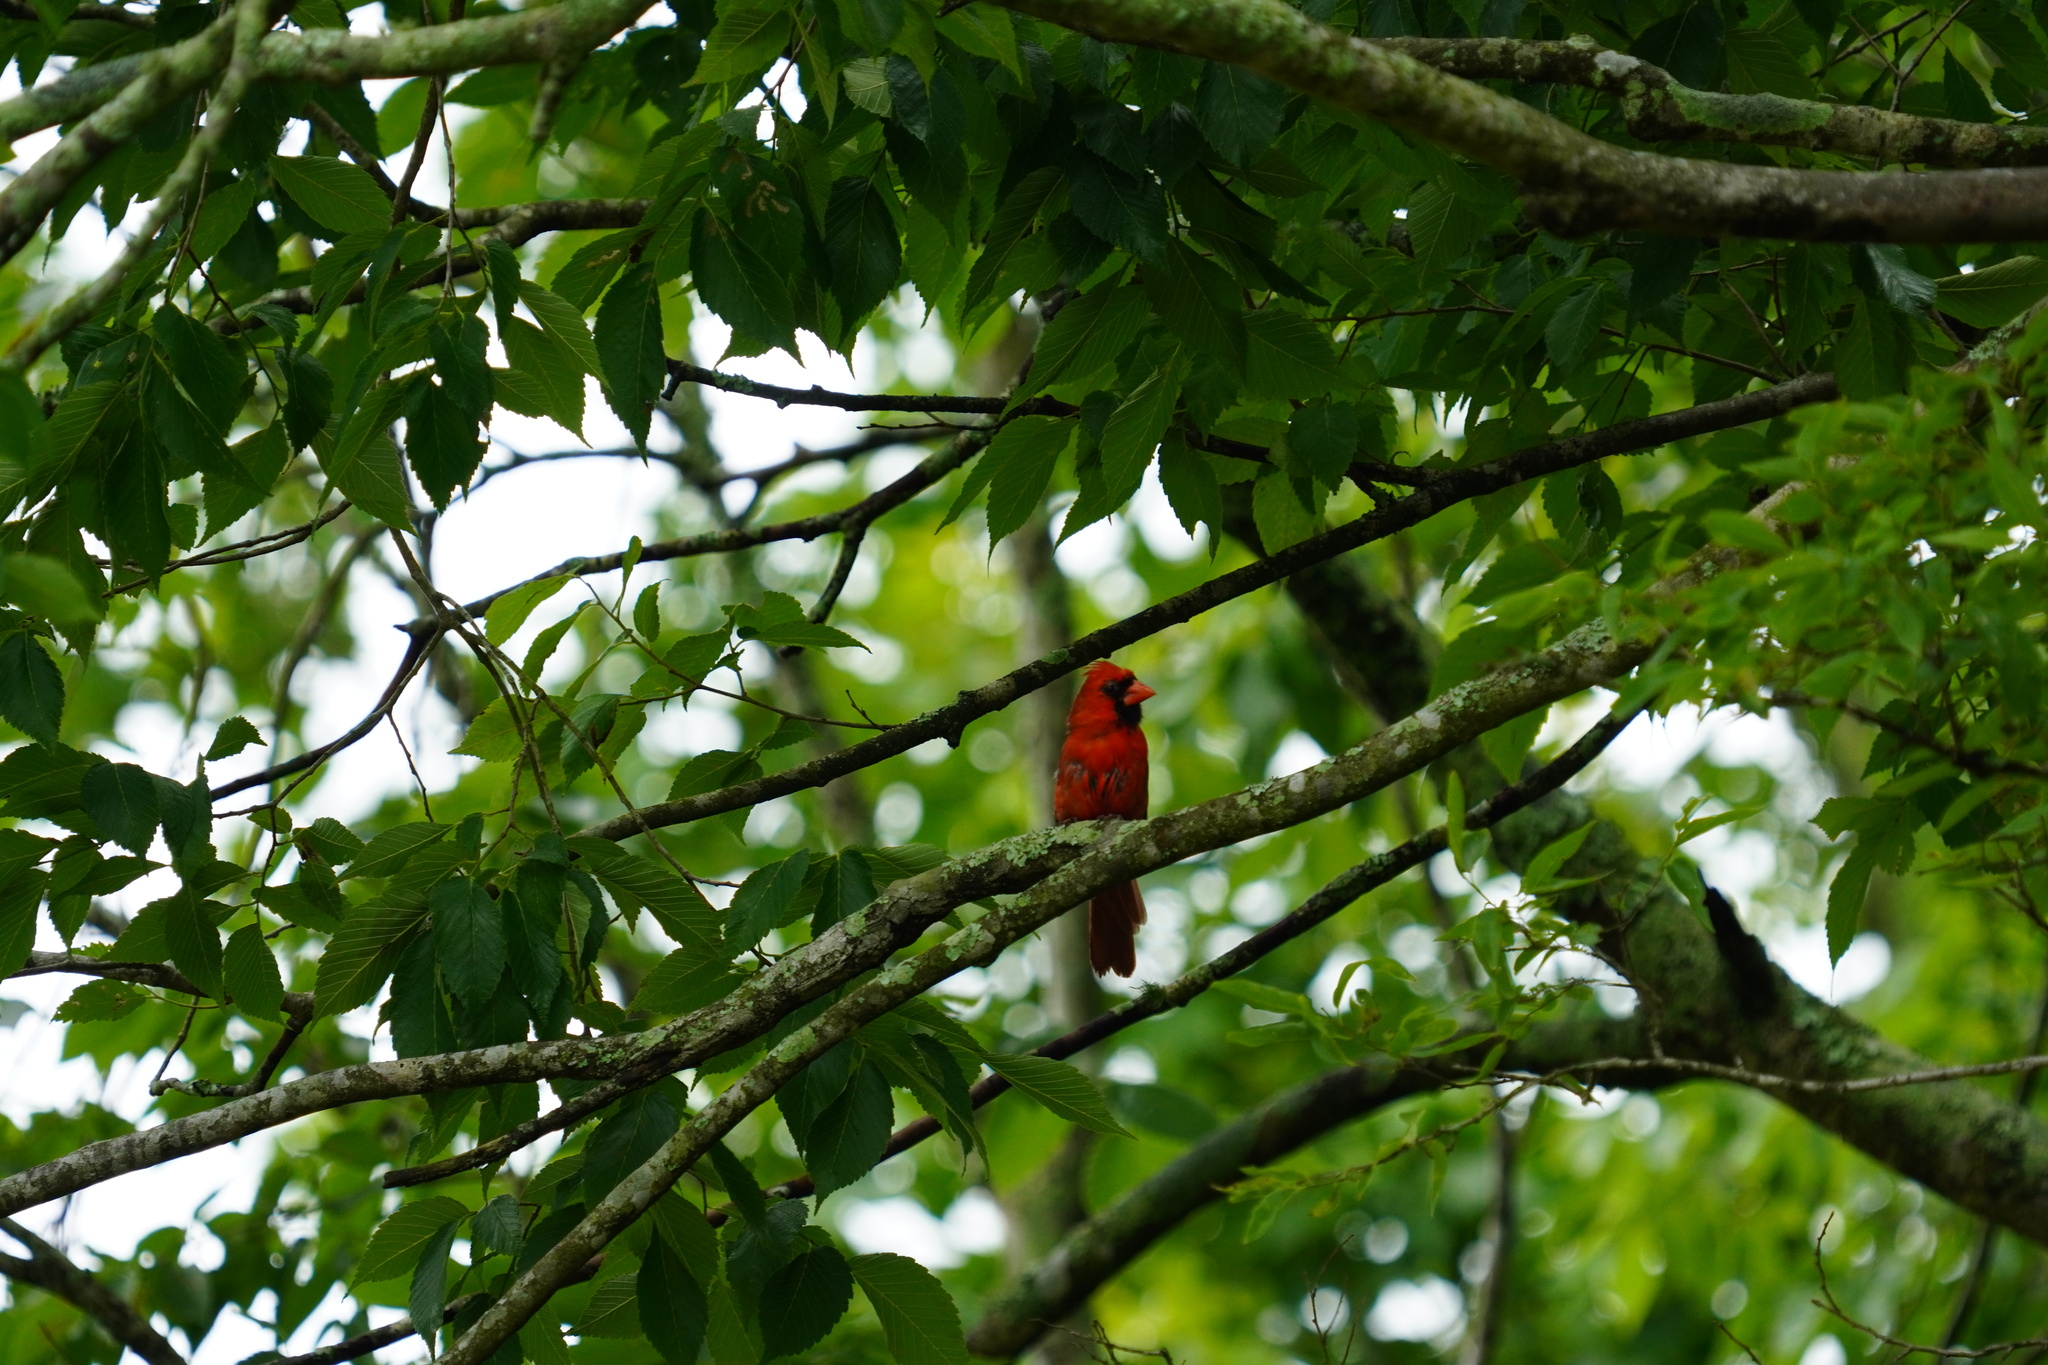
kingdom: Animalia
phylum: Chordata
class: Aves
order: Passeriformes
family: Cardinalidae
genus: Cardinalis
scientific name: Cardinalis cardinalis
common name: Northern cardinal
